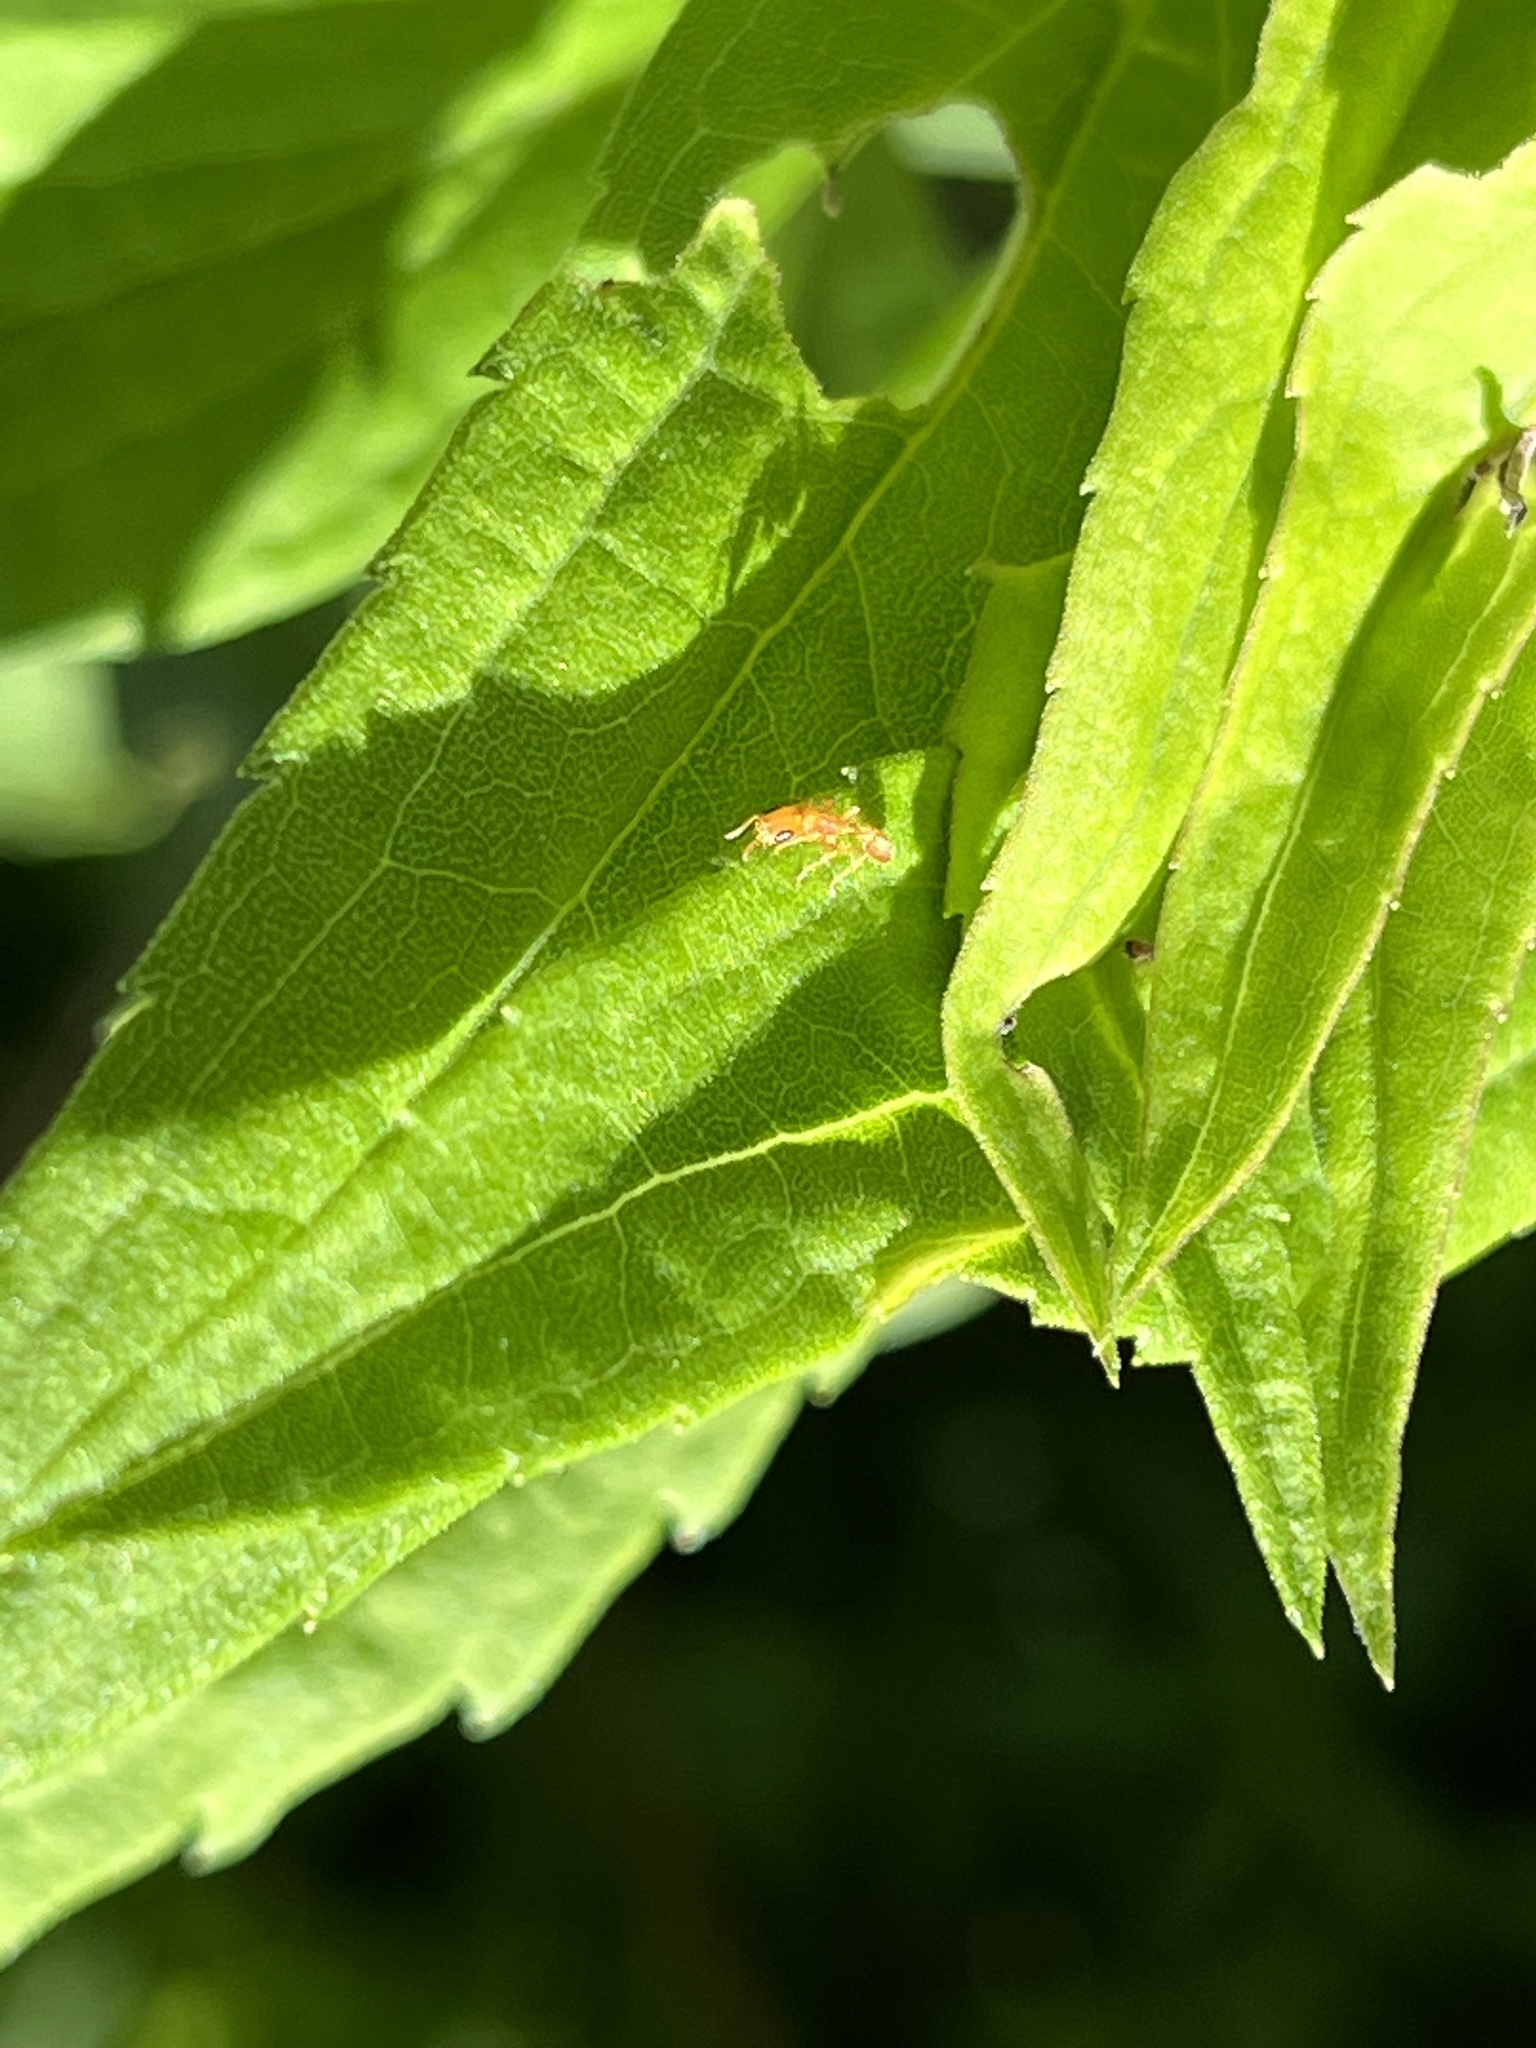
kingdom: Animalia
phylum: Arthropoda
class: Insecta
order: Hymenoptera
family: Formicidae
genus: Pseudomyrmex
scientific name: Pseudomyrmex pallidus
